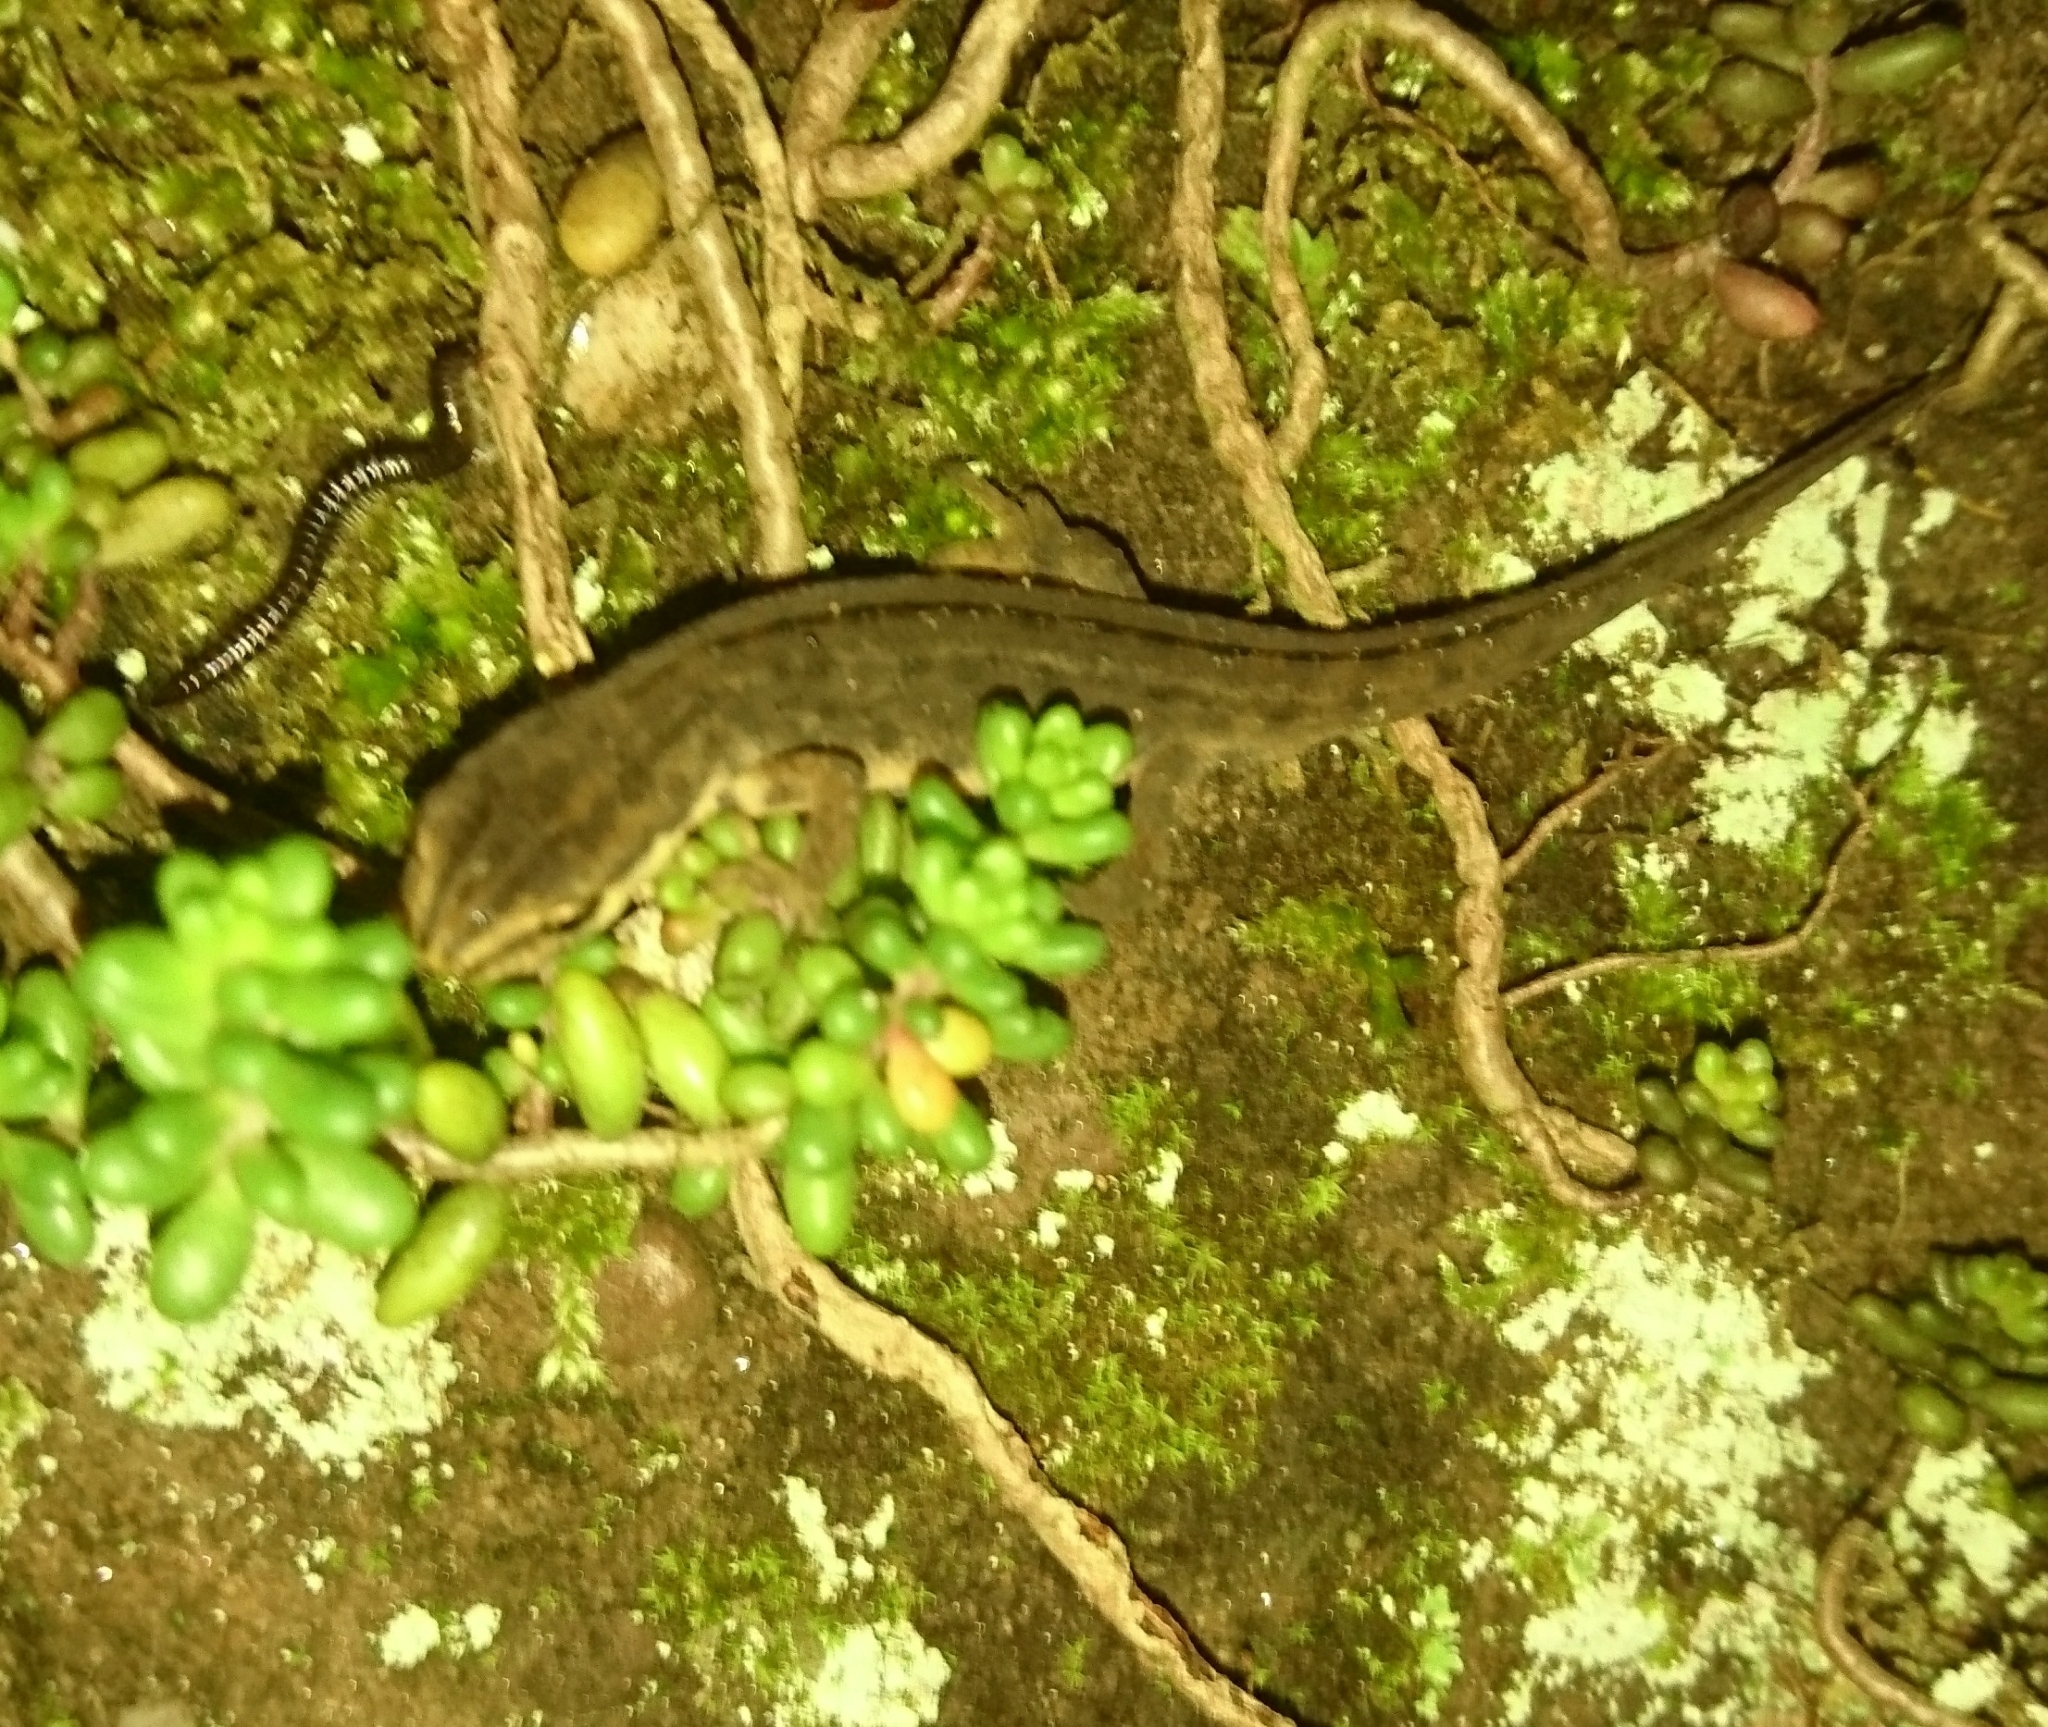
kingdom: Animalia
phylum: Chordata
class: Amphibia
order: Caudata
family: Salamandridae
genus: Lissotriton
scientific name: Lissotriton vulgaris
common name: Smooth newt
